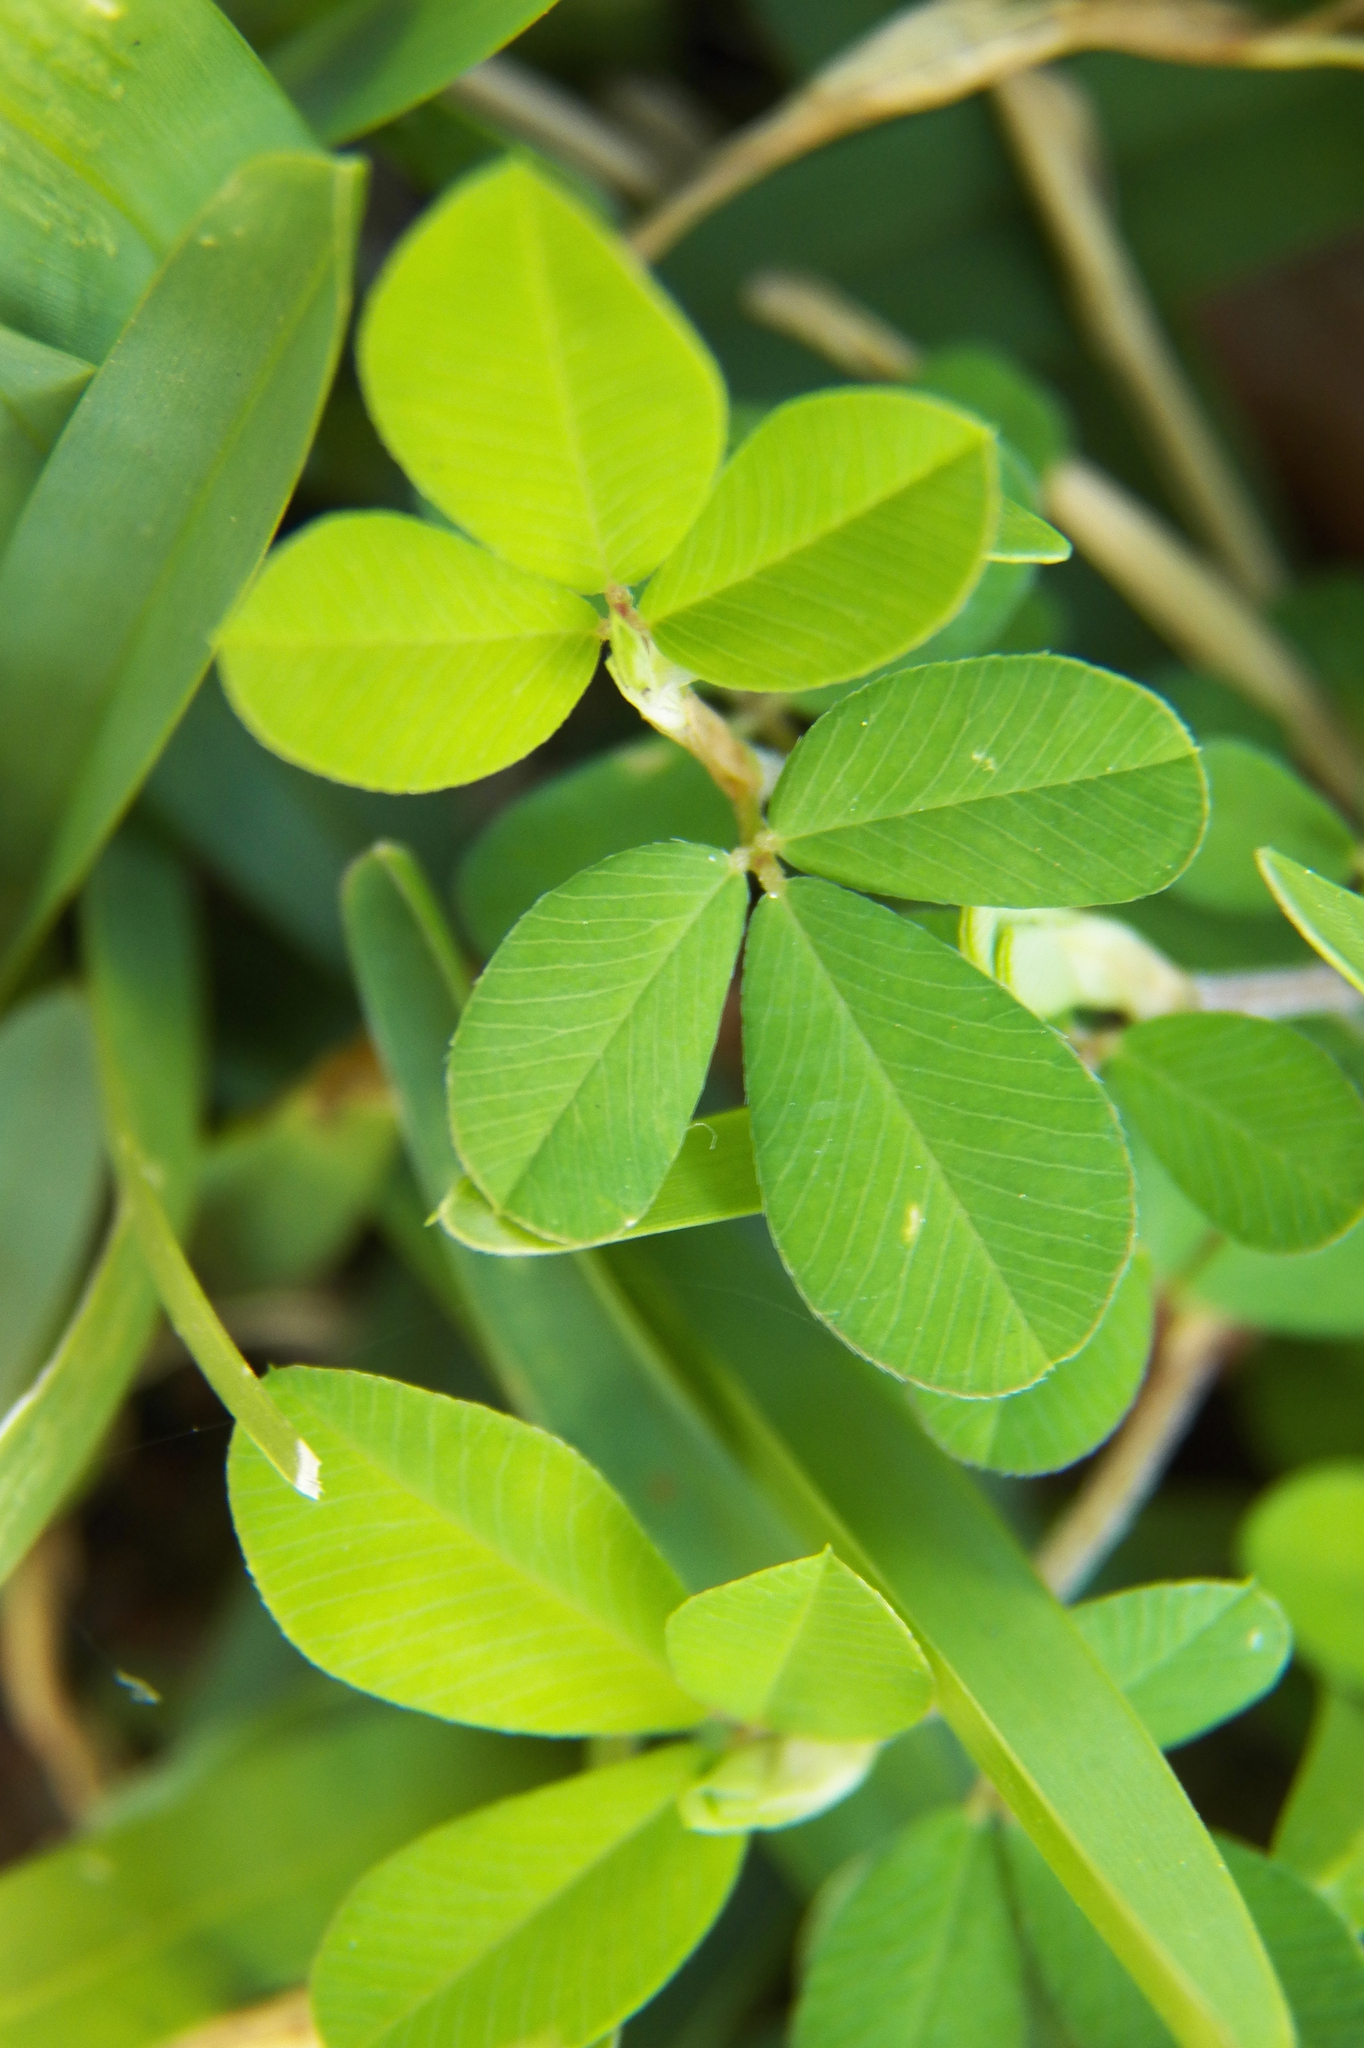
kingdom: Plantae
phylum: Tracheophyta
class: Magnoliopsida
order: Fabales
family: Fabaceae
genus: Kummerowia
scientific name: Kummerowia striata
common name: Japanese clover
